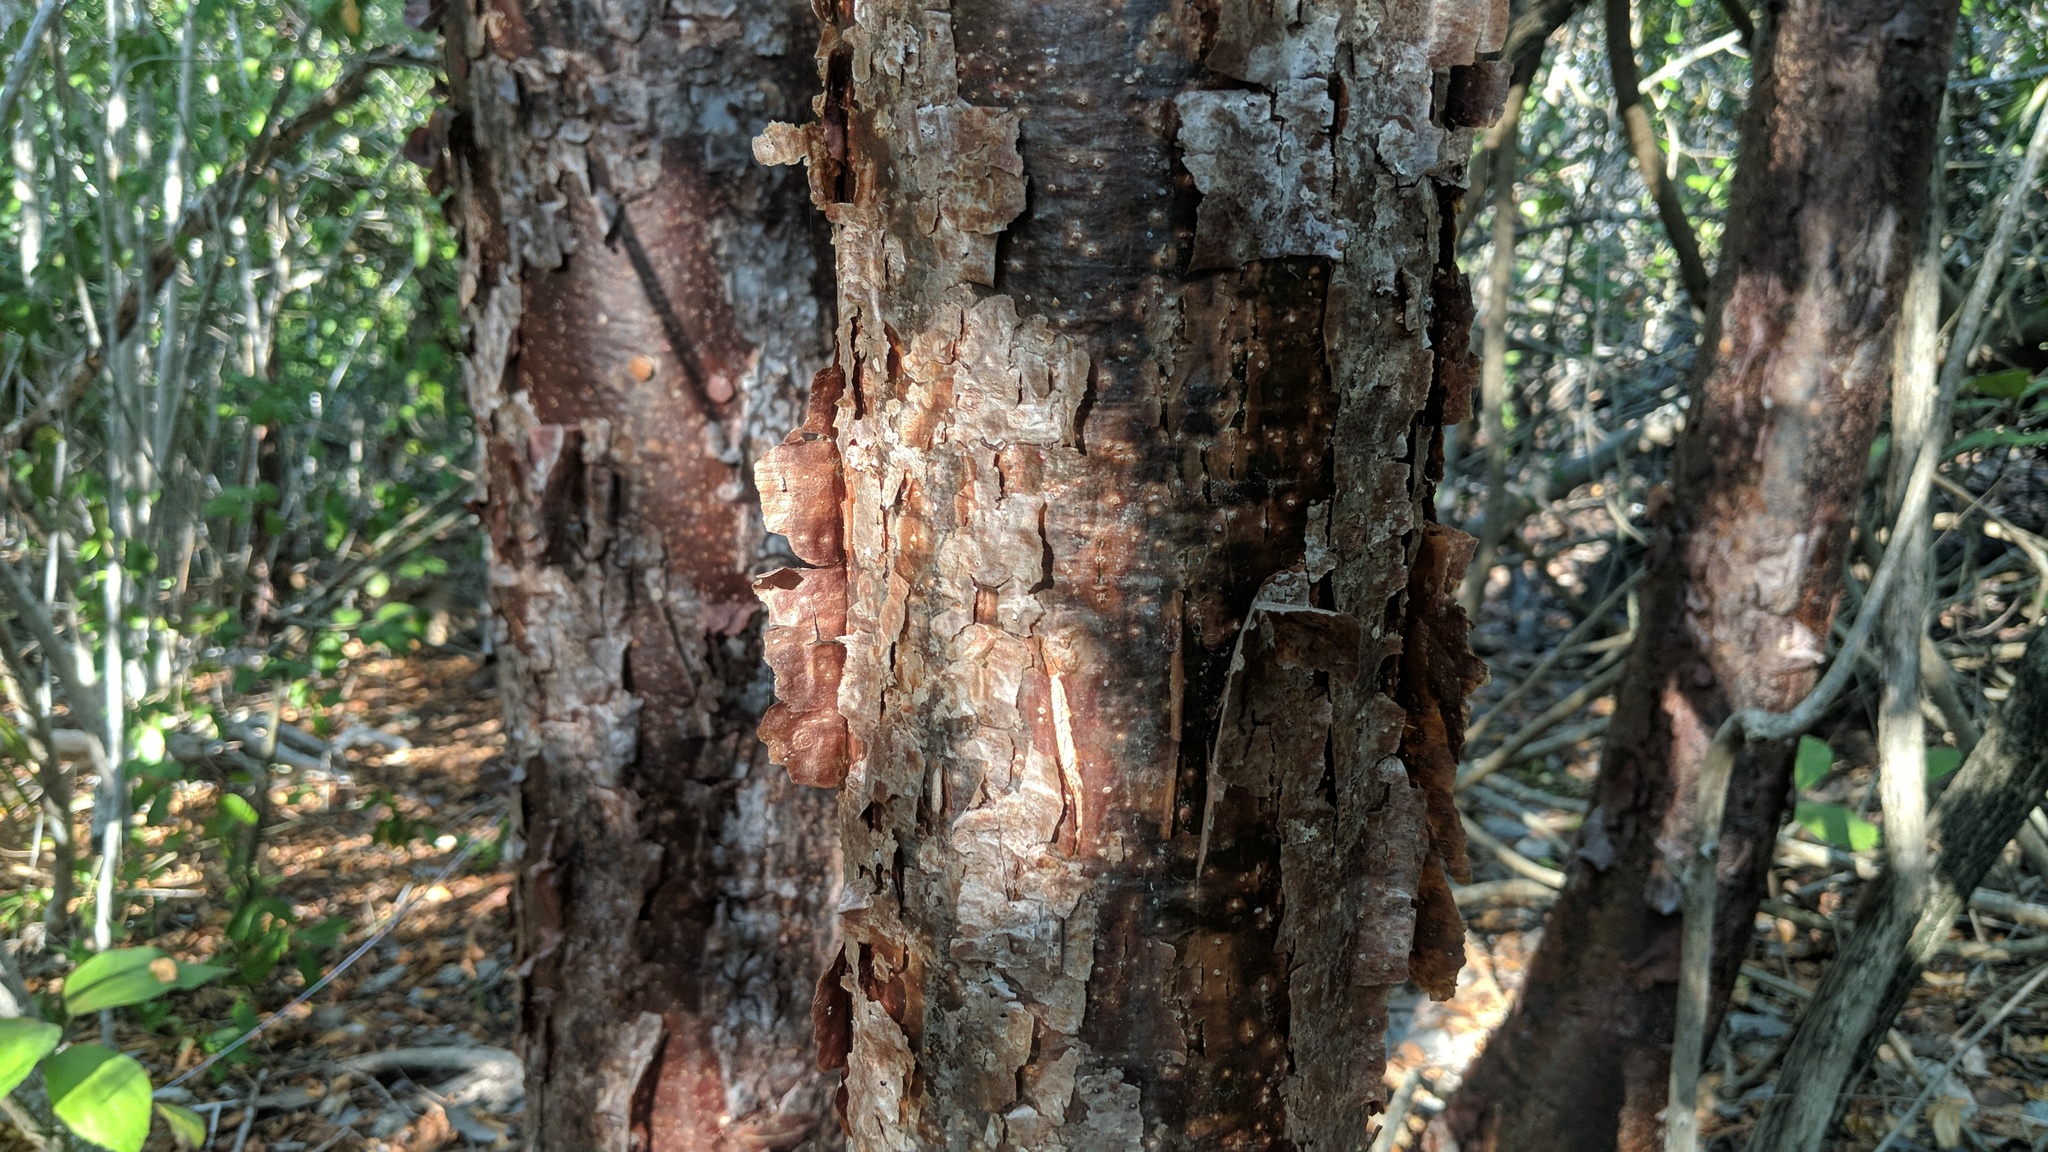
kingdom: Plantae
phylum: Tracheophyta
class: Magnoliopsida
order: Sapindales
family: Burseraceae
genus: Bursera
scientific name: Bursera simaruba
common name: Turpentine tree
